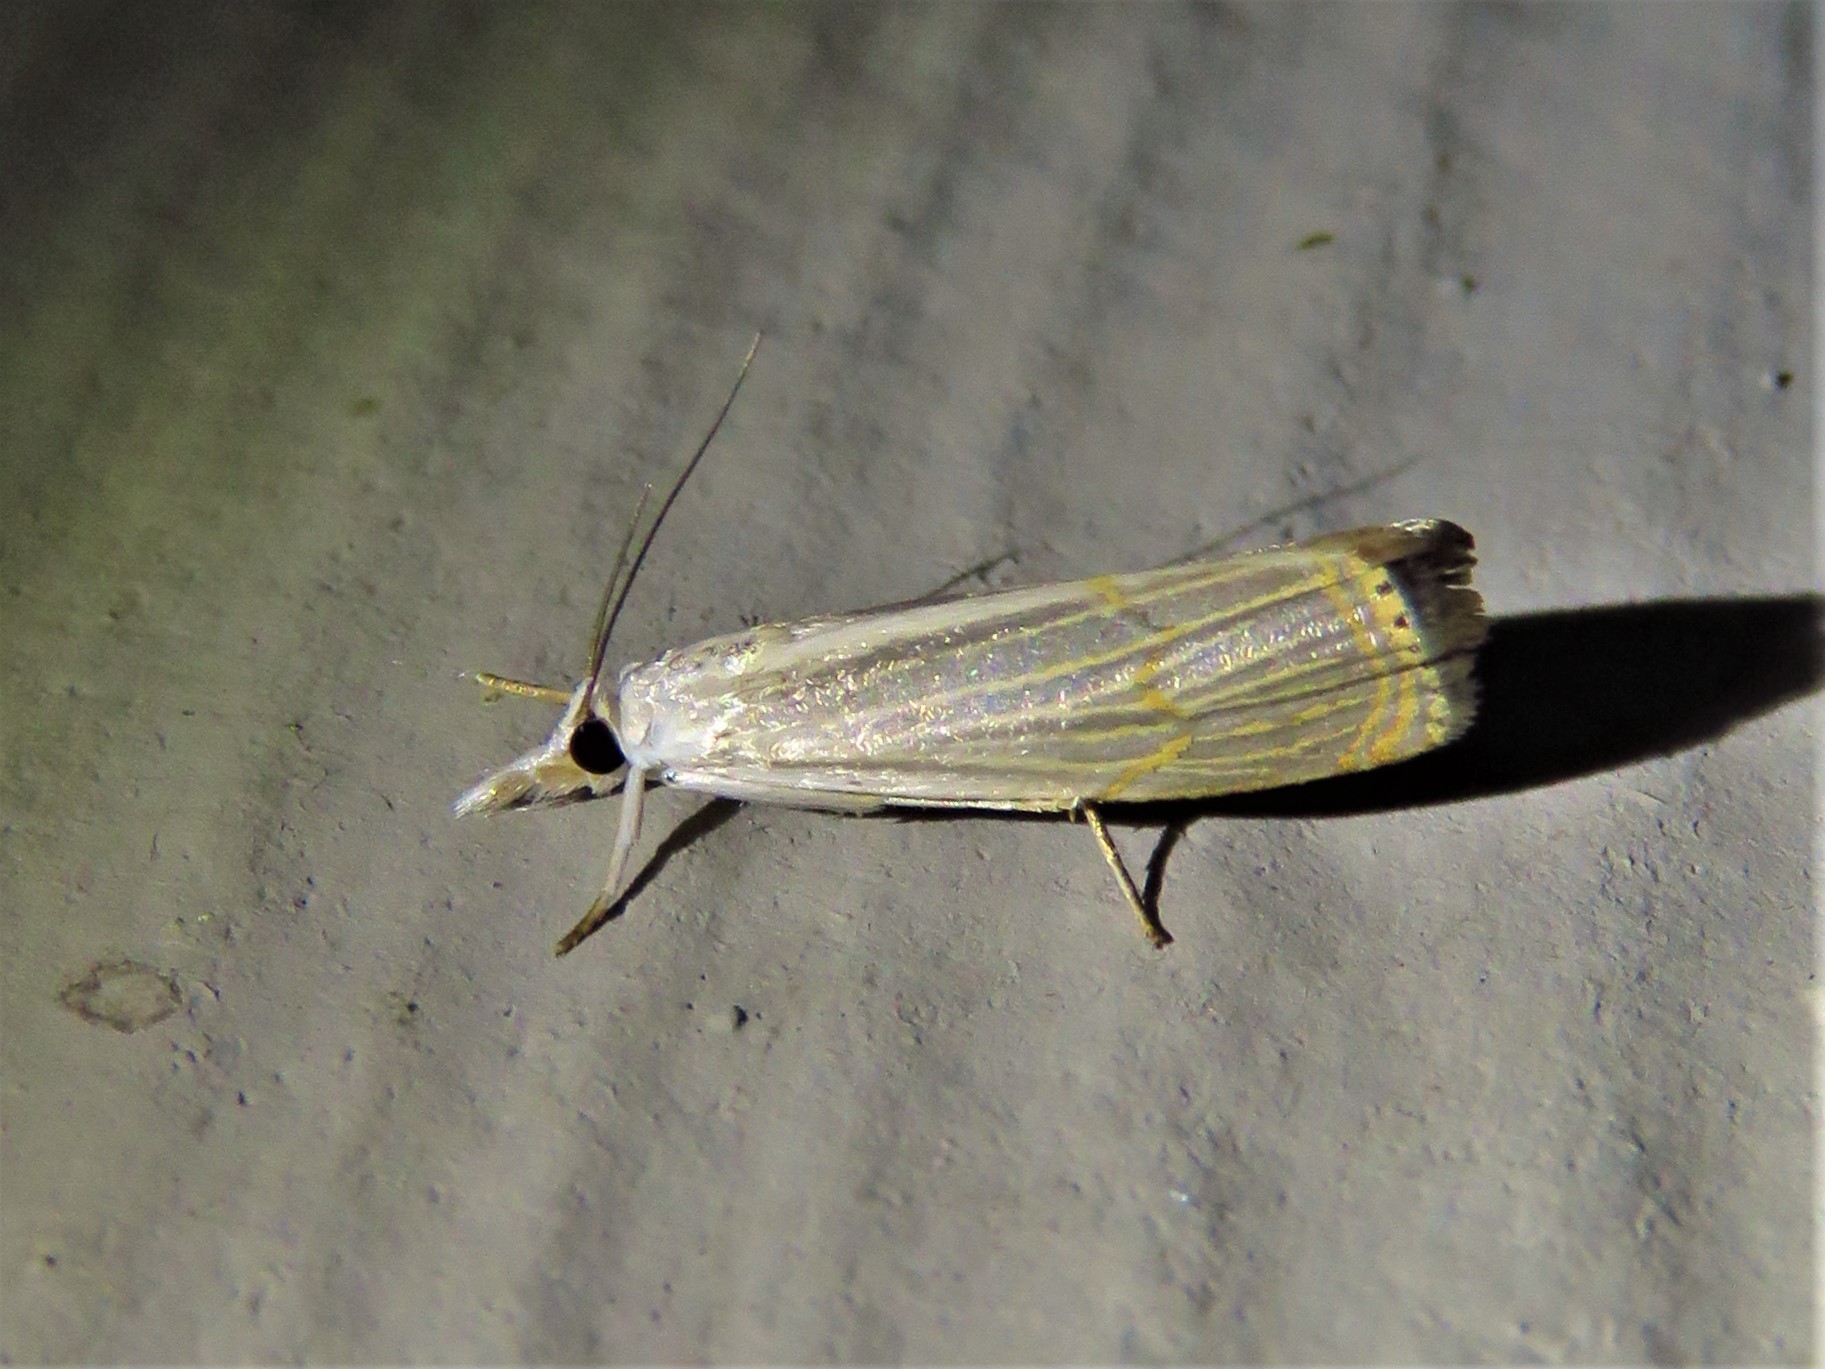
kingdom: Animalia
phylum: Arthropoda
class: Insecta
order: Lepidoptera
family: Crambidae
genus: Parapediasia
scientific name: Parapediasia decorellus
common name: Graceful grass-veneer
